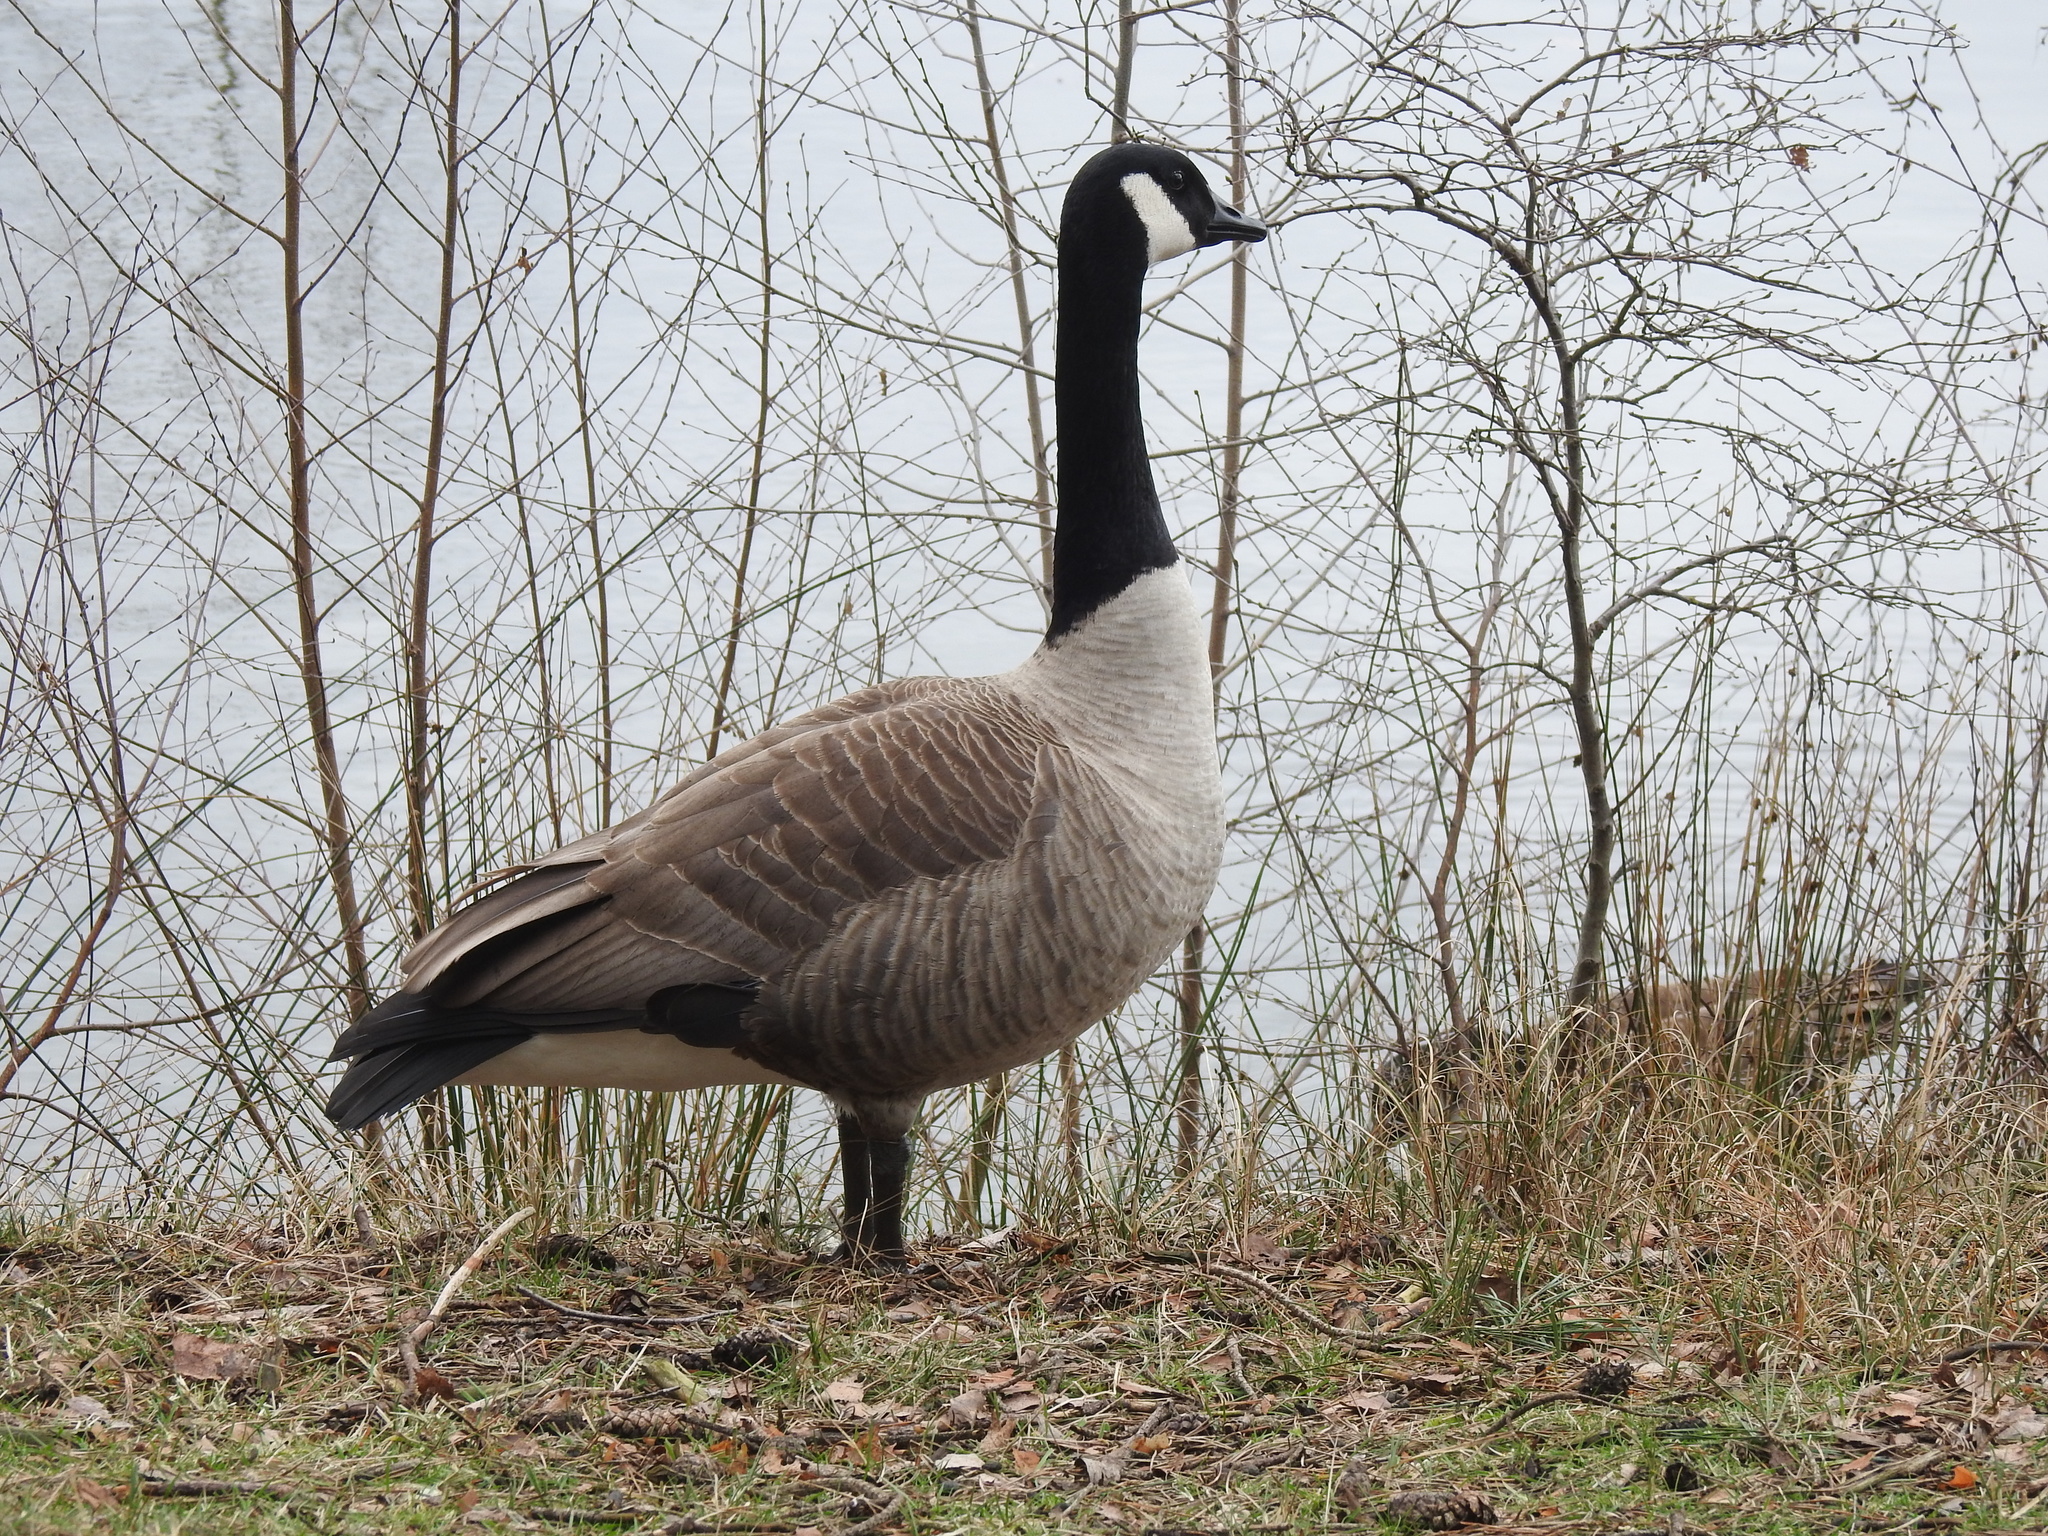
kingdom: Animalia
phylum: Chordata
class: Aves
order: Anseriformes
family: Anatidae
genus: Branta
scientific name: Branta canadensis
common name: Canada goose
